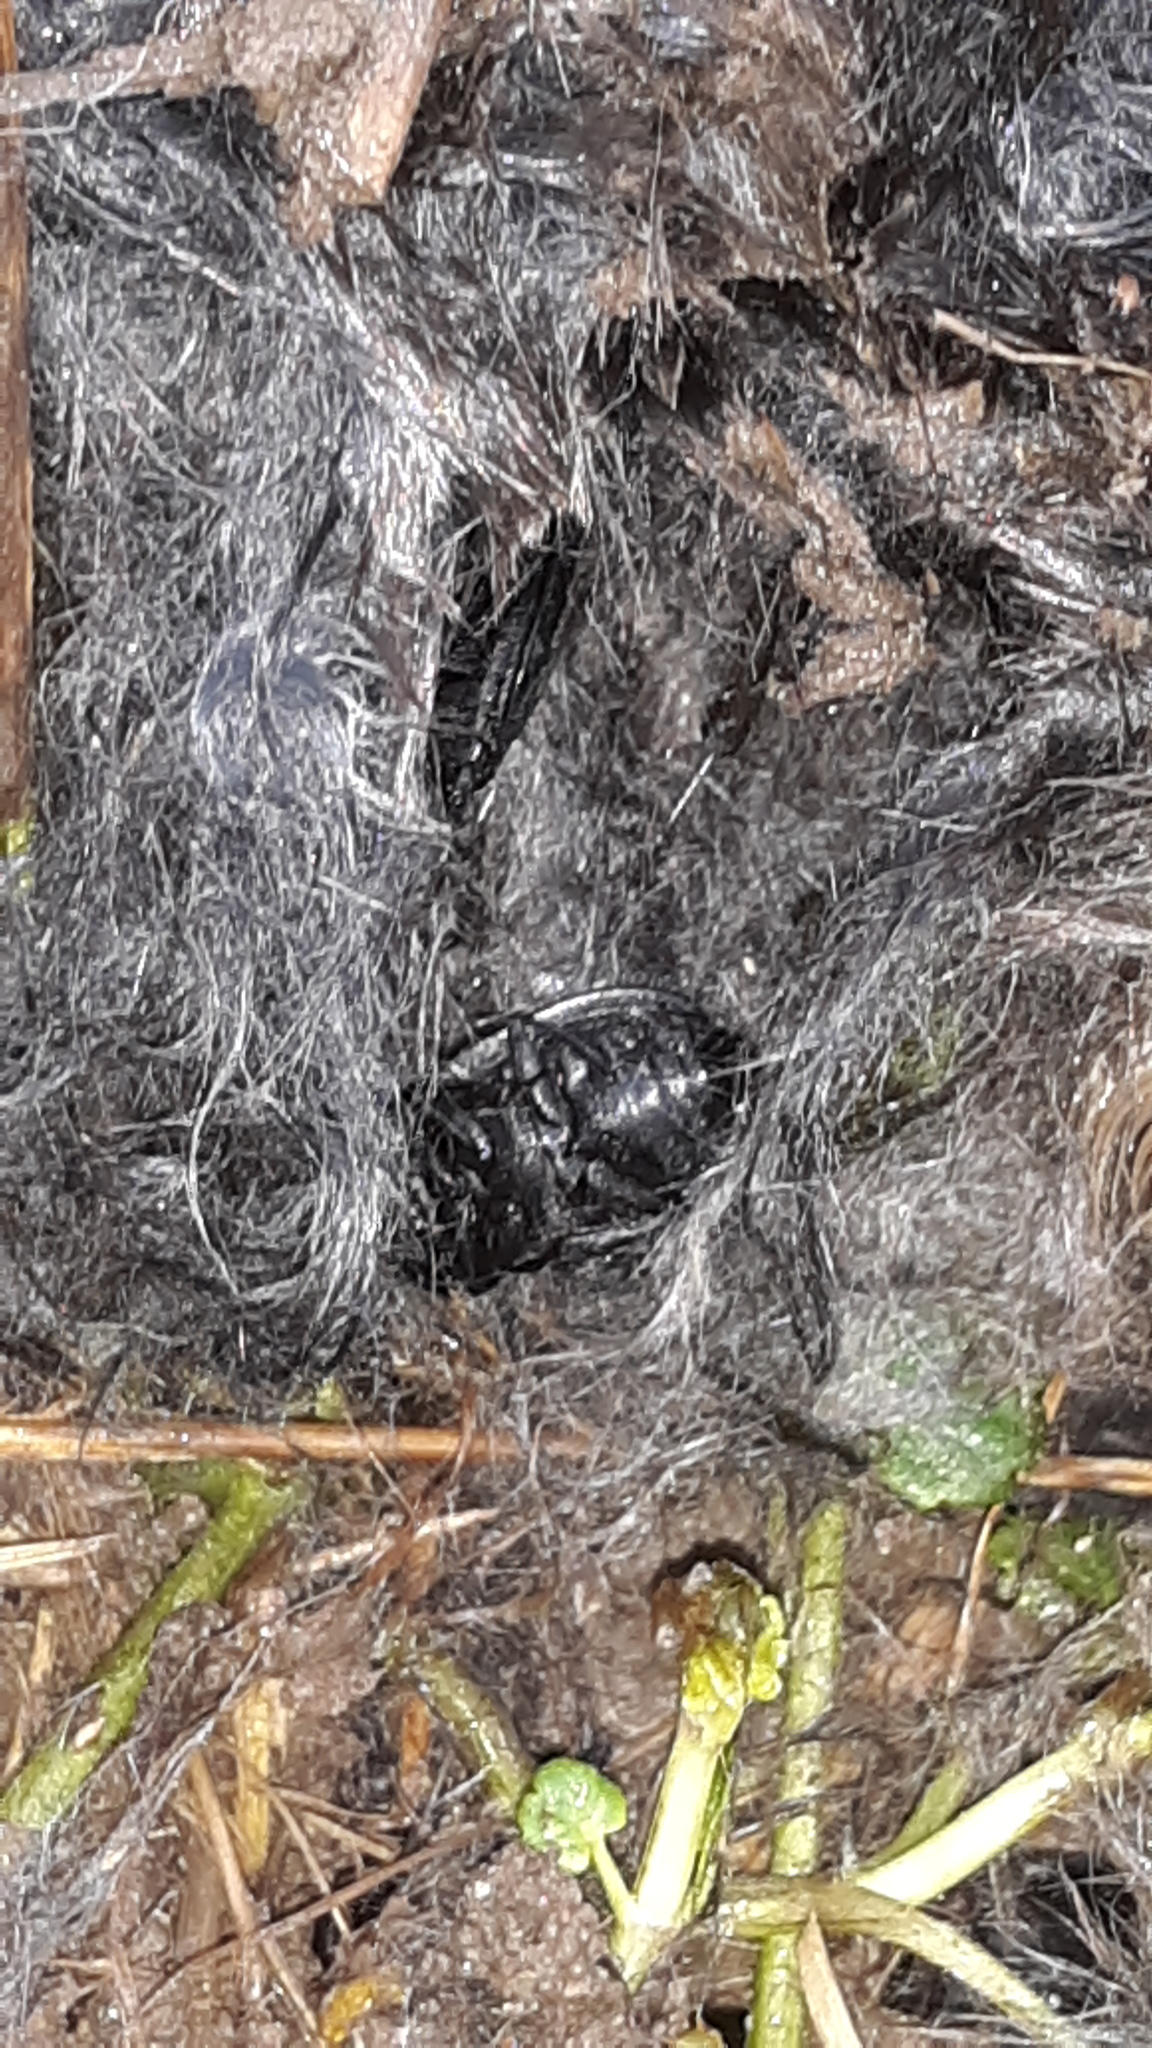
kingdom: Animalia
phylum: Arthropoda
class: Insecta
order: Coleoptera
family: Staphylinidae
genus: Oiceoptoma
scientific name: Oiceoptoma inaequale
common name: Ridged carrion beetle
